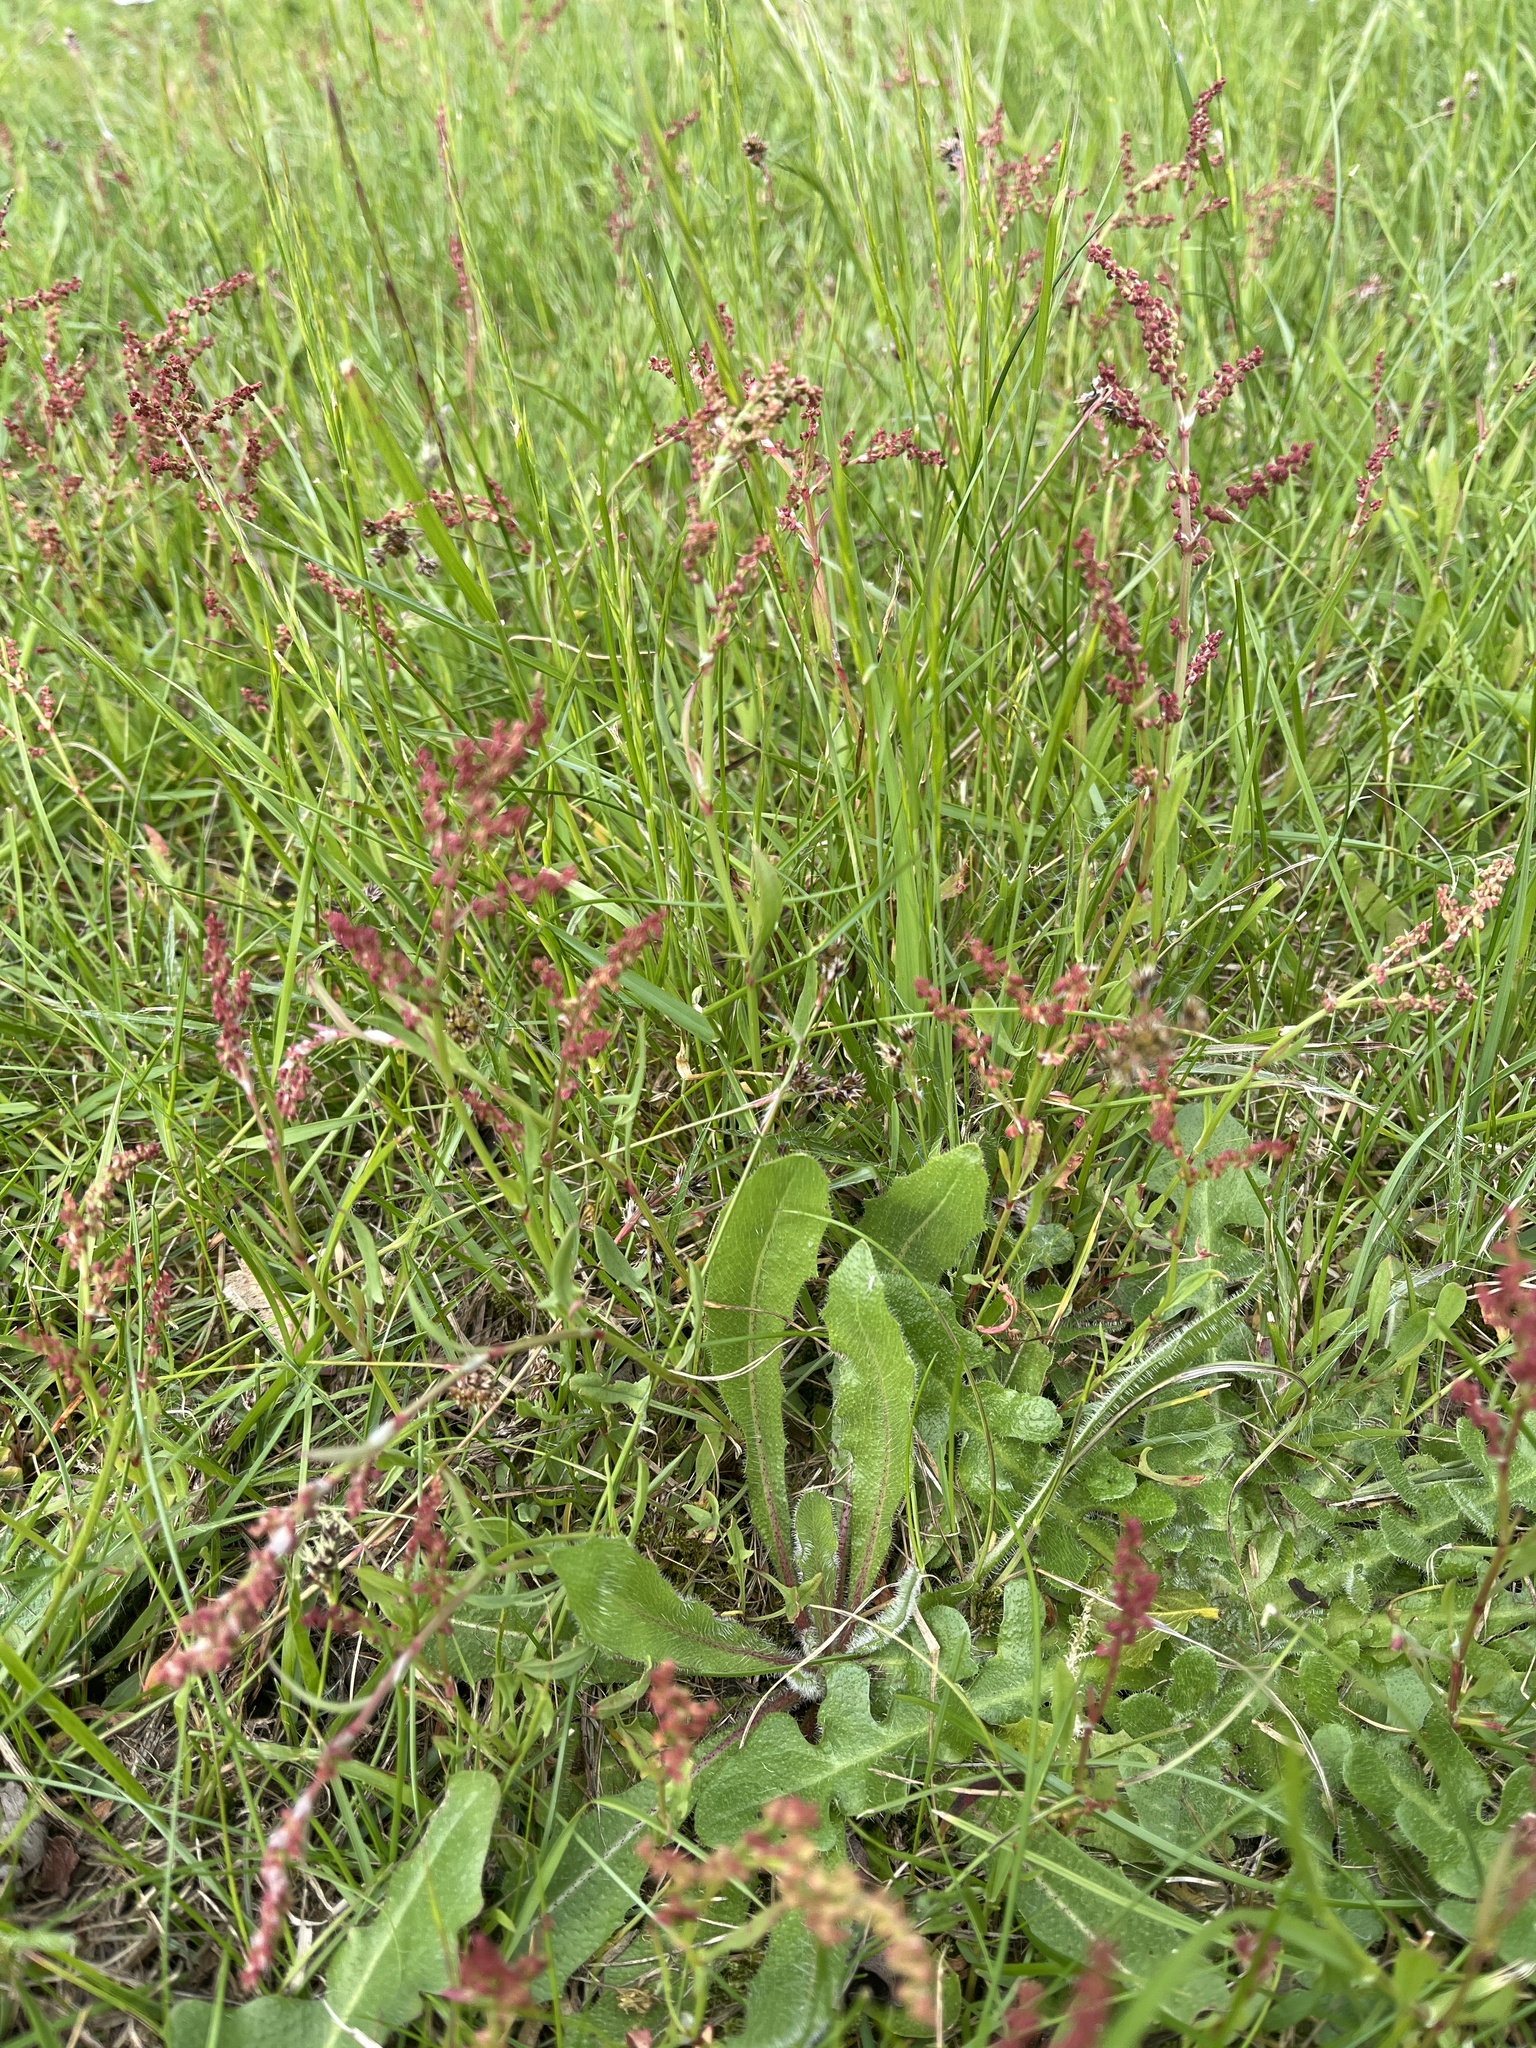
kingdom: Plantae
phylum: Tracheophyta
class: Magnoliopsida
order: Caryophyllales
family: Polygonaceae
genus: Rumex
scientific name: Rumex acetosella
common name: Common sheep sorrel
